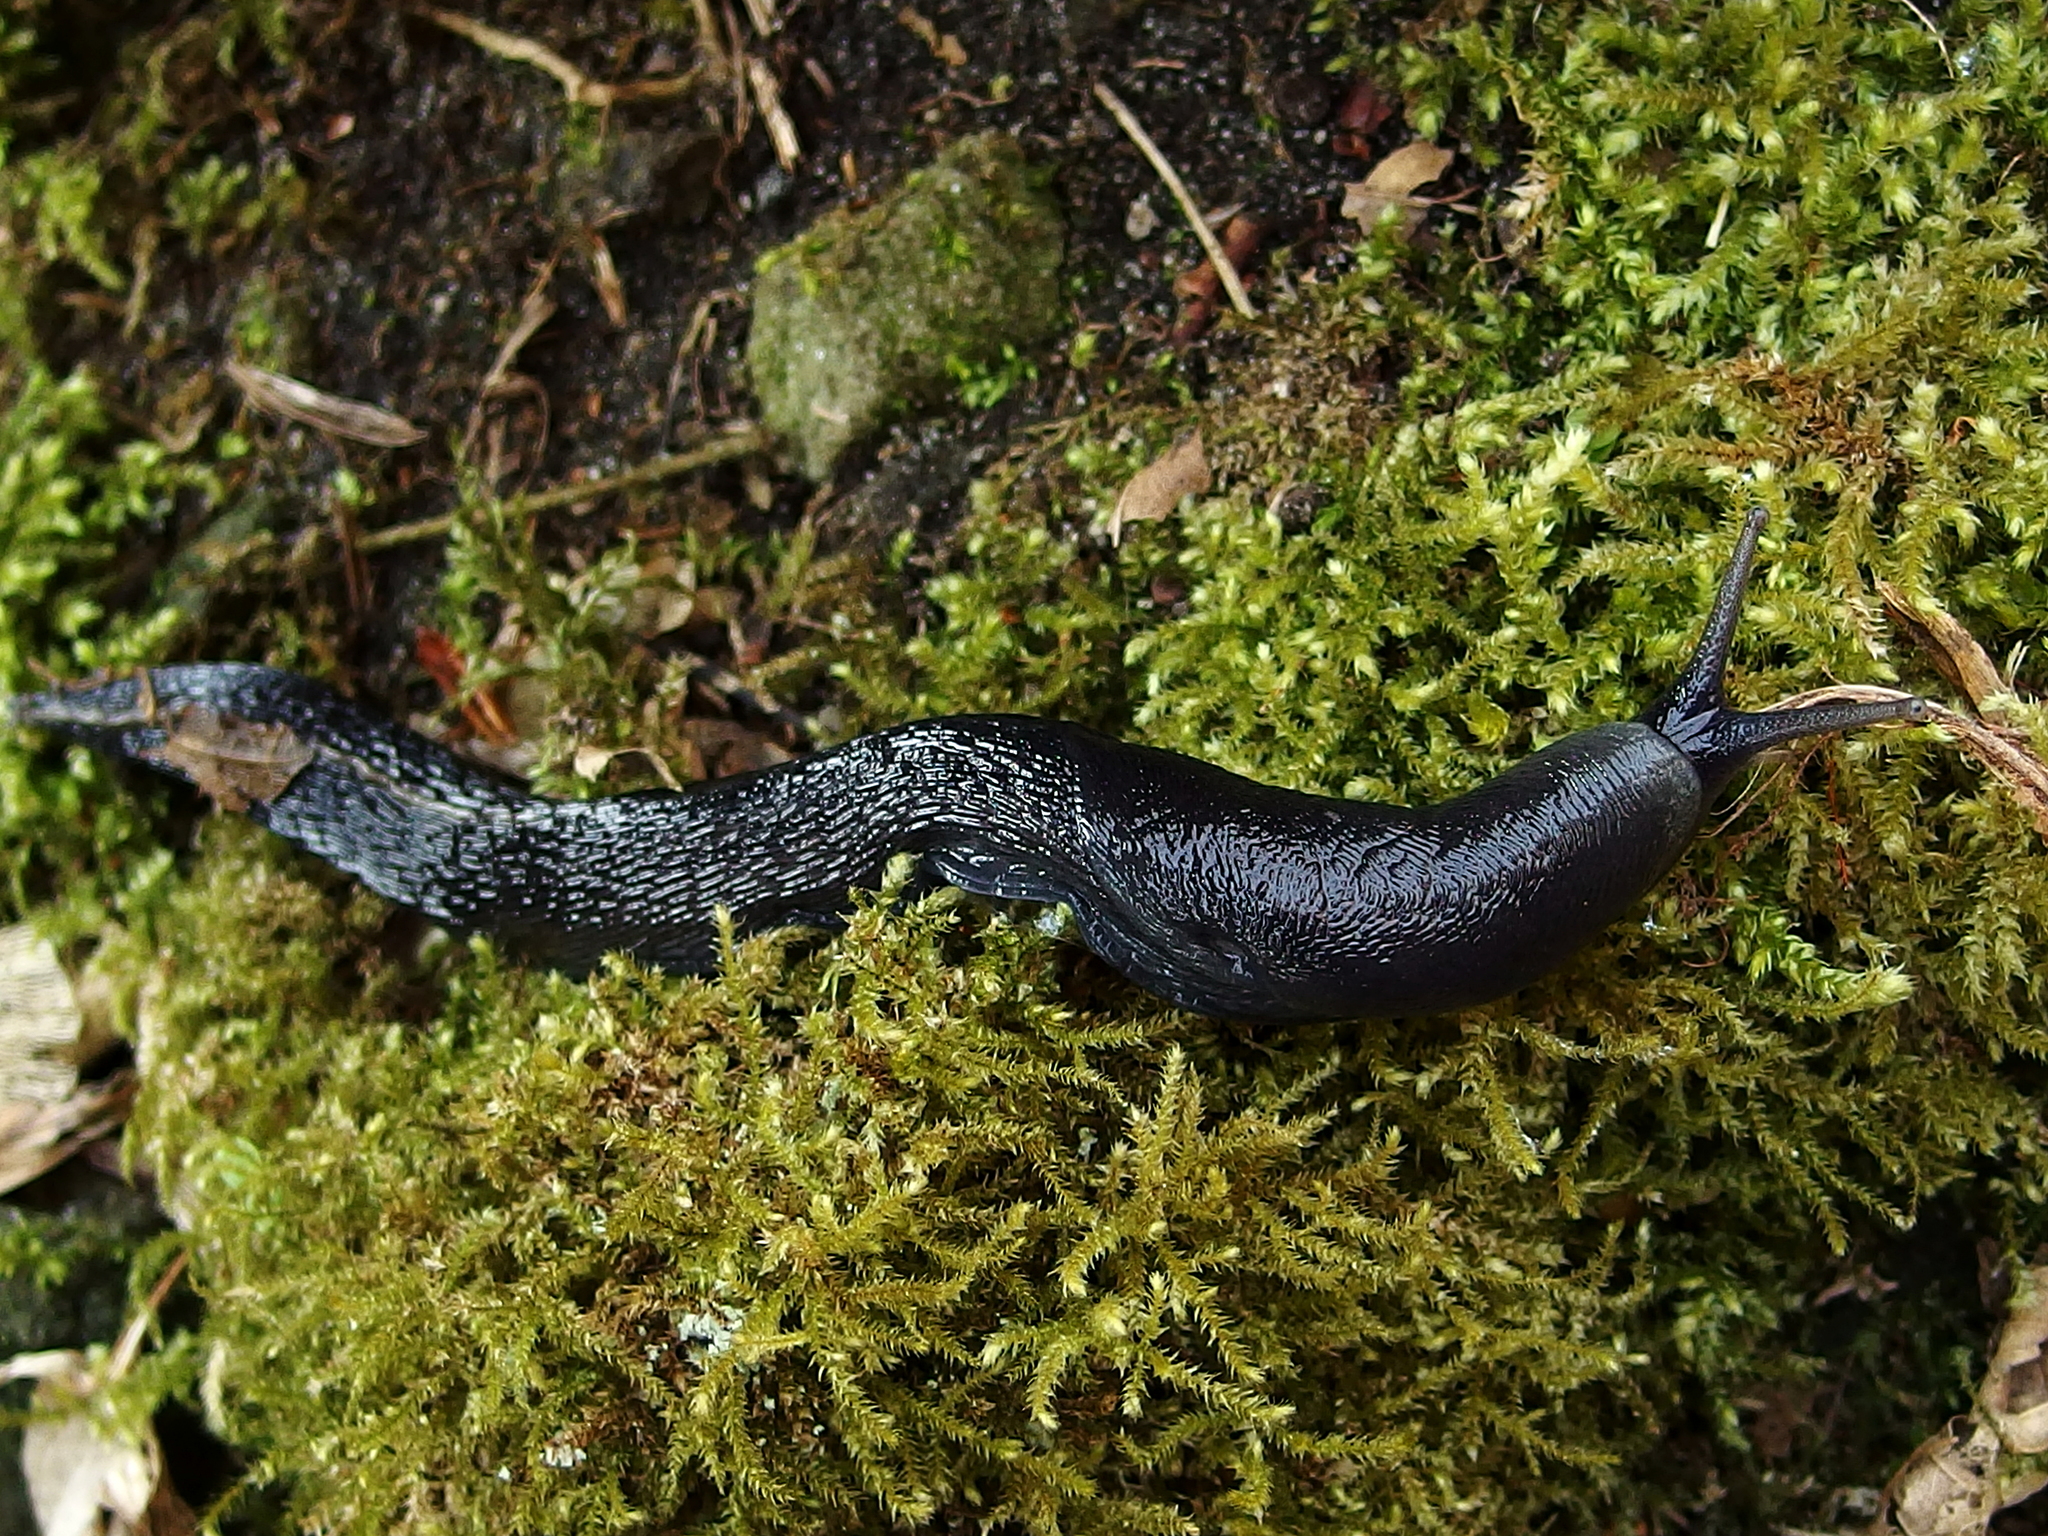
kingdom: Animalia
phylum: Mollusca
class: Gastropoda
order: Stylommatophora
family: Limacidae
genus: Limax
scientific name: Limax cinereoniger
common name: Ash-black slug
